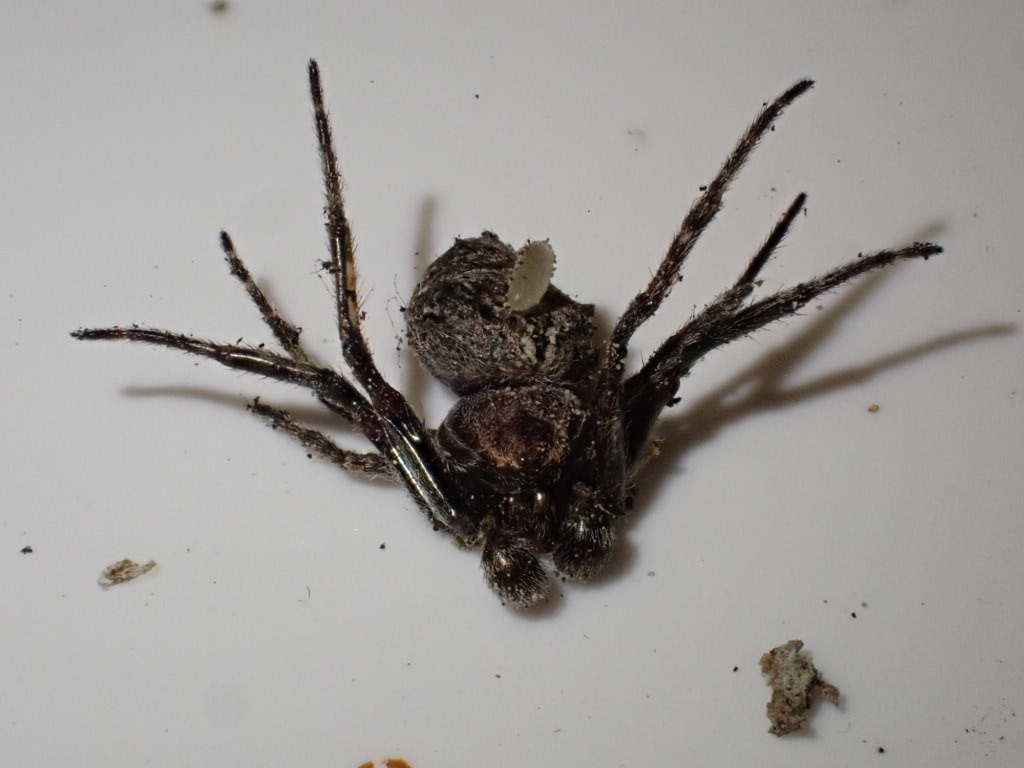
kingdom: Animalia
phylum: Arthropoda
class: Arachnida
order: Araneae
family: Araneidae
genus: Eriophora
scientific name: Eriophora pustulosa
